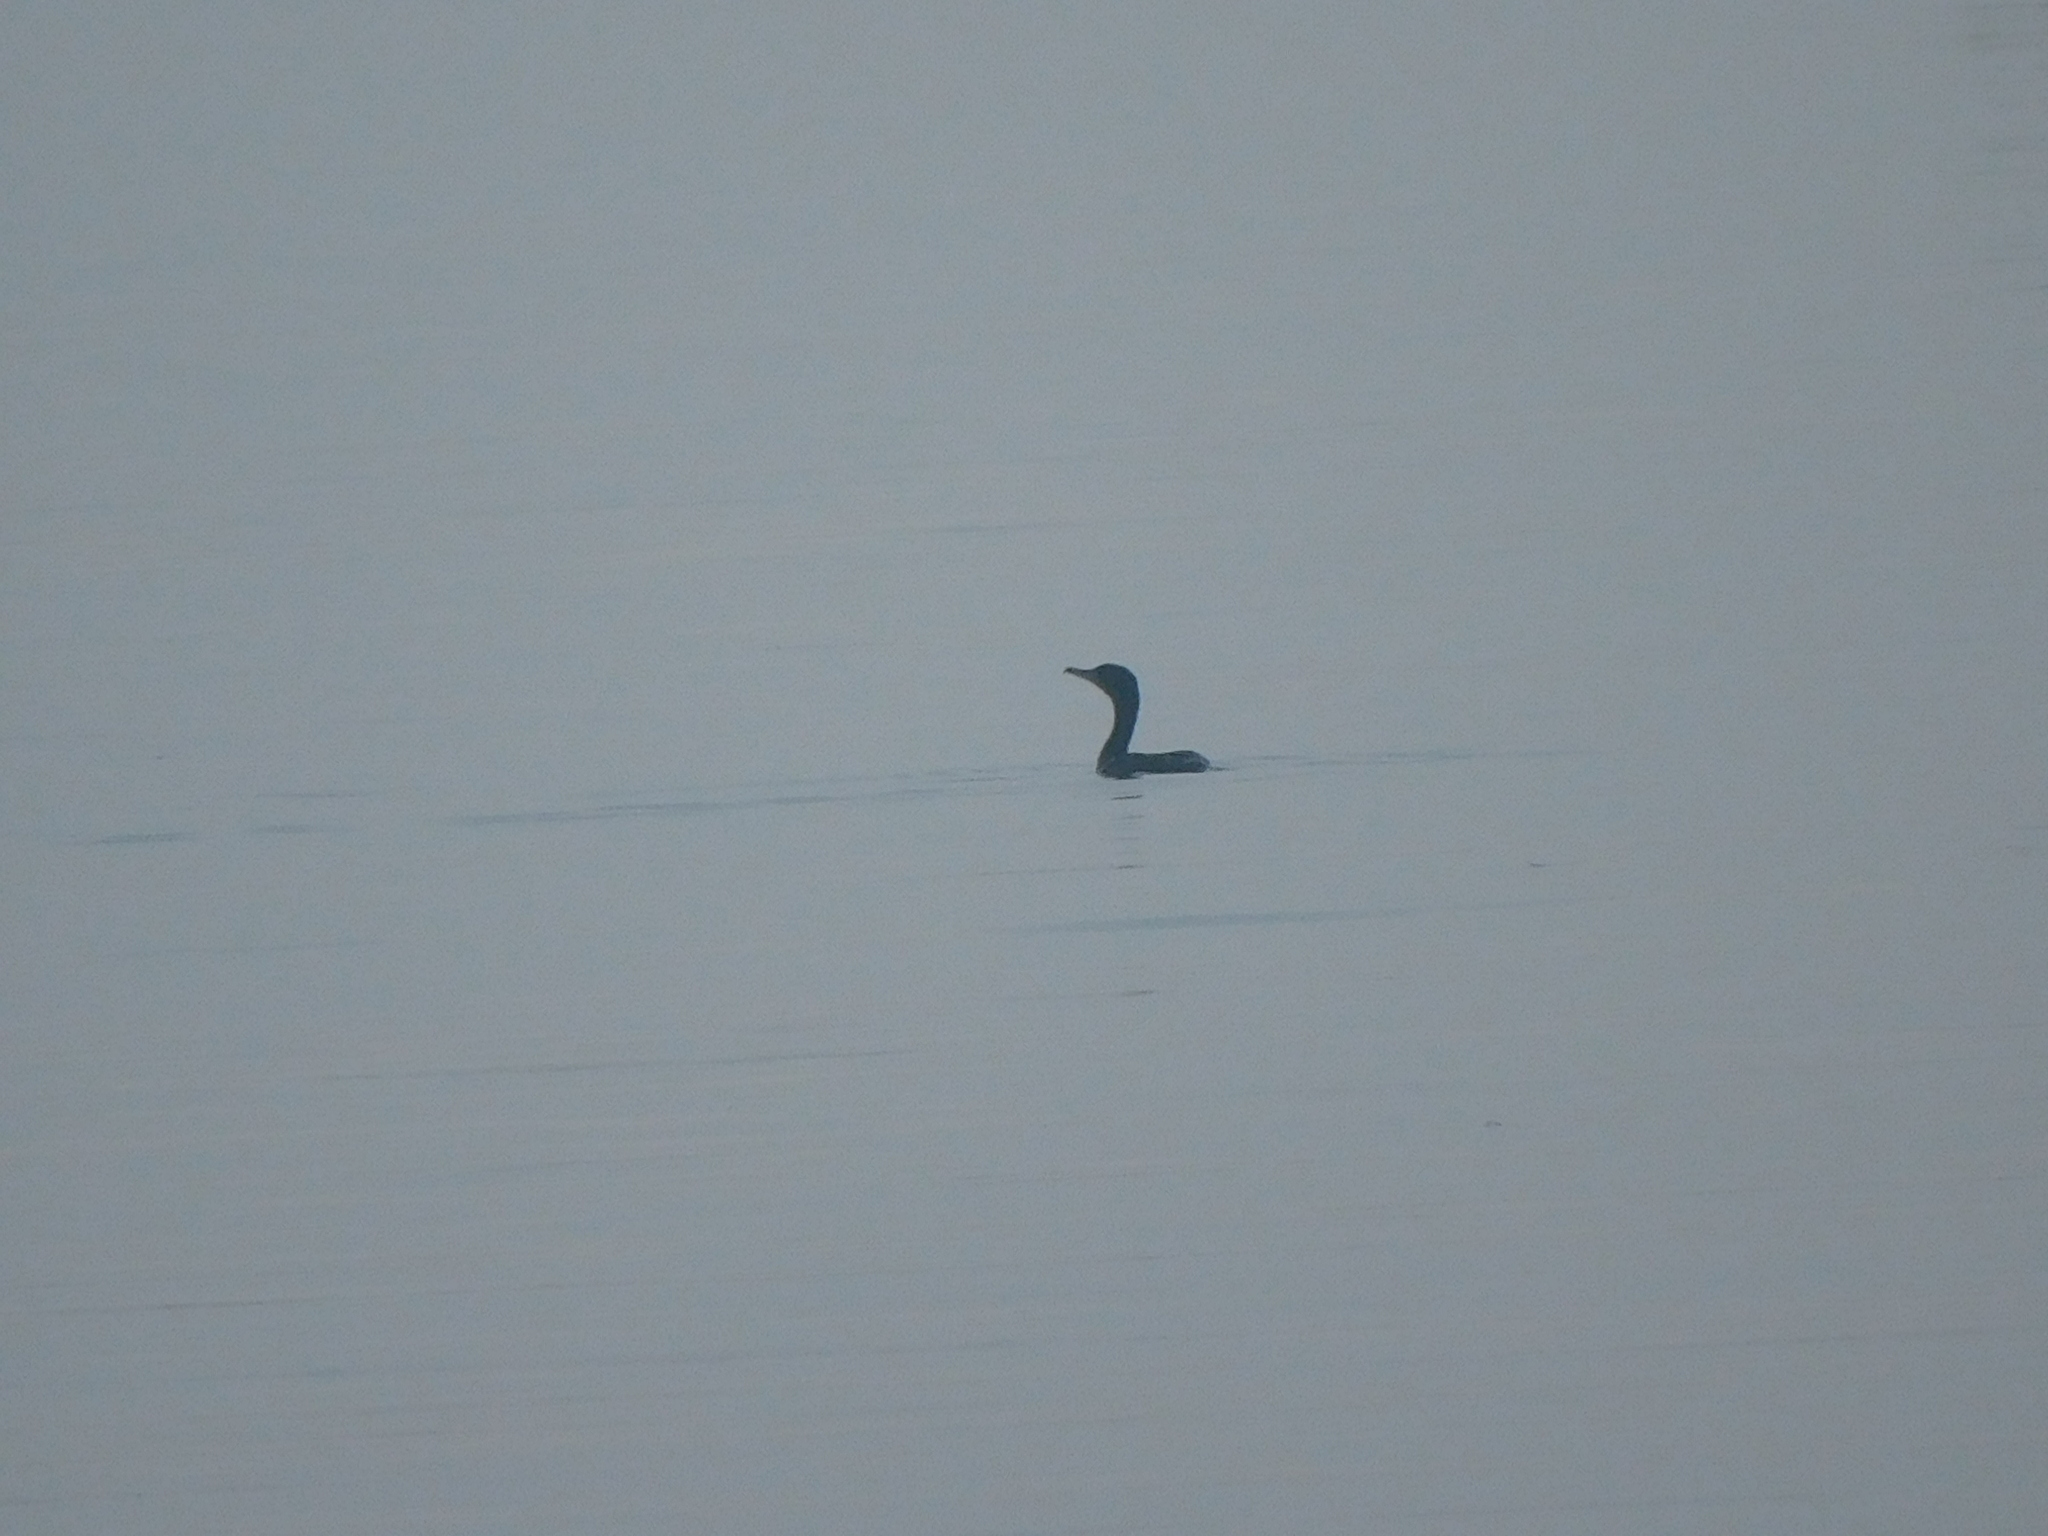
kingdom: Animalia
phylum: Chordata
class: Aves
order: Suliformes
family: Phalacrocoracidae
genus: Phalacrocorax
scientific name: Phalacrocorax auritus
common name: Double-crested cormorant
